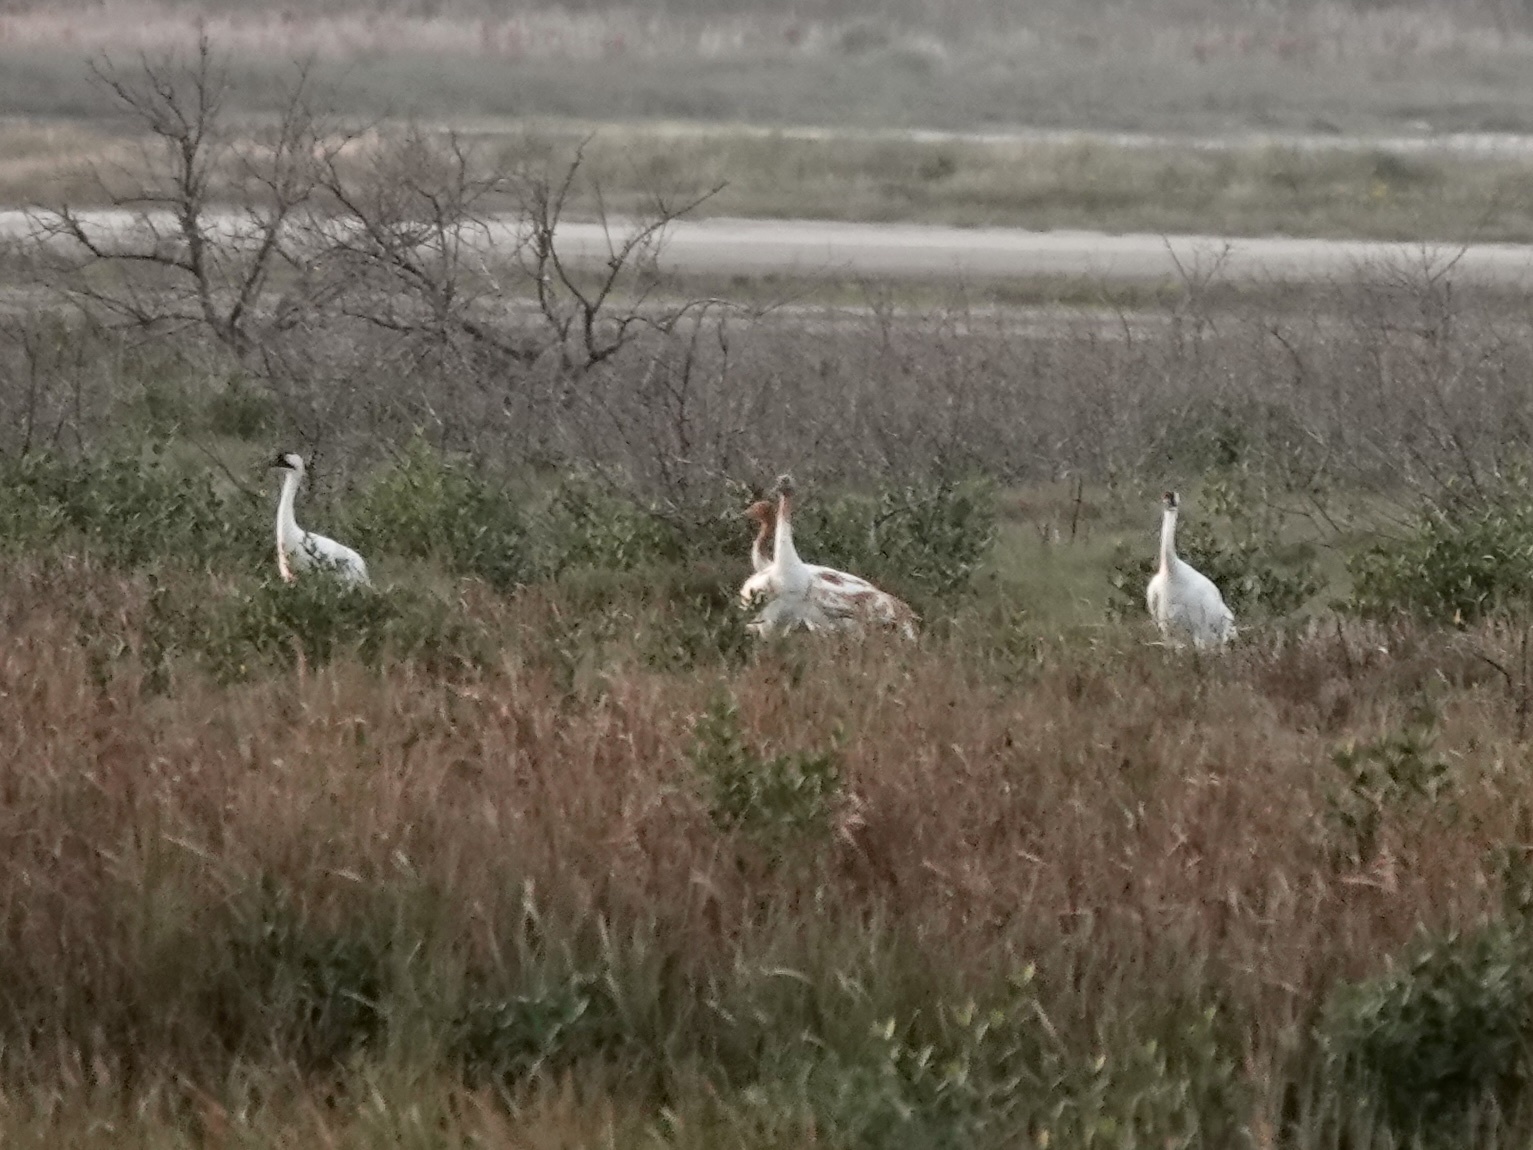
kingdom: Animalia
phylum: Chordata
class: Aves
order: Gruiformes
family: Gruidae
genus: Grus
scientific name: Grus americana
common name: Whooping crane
